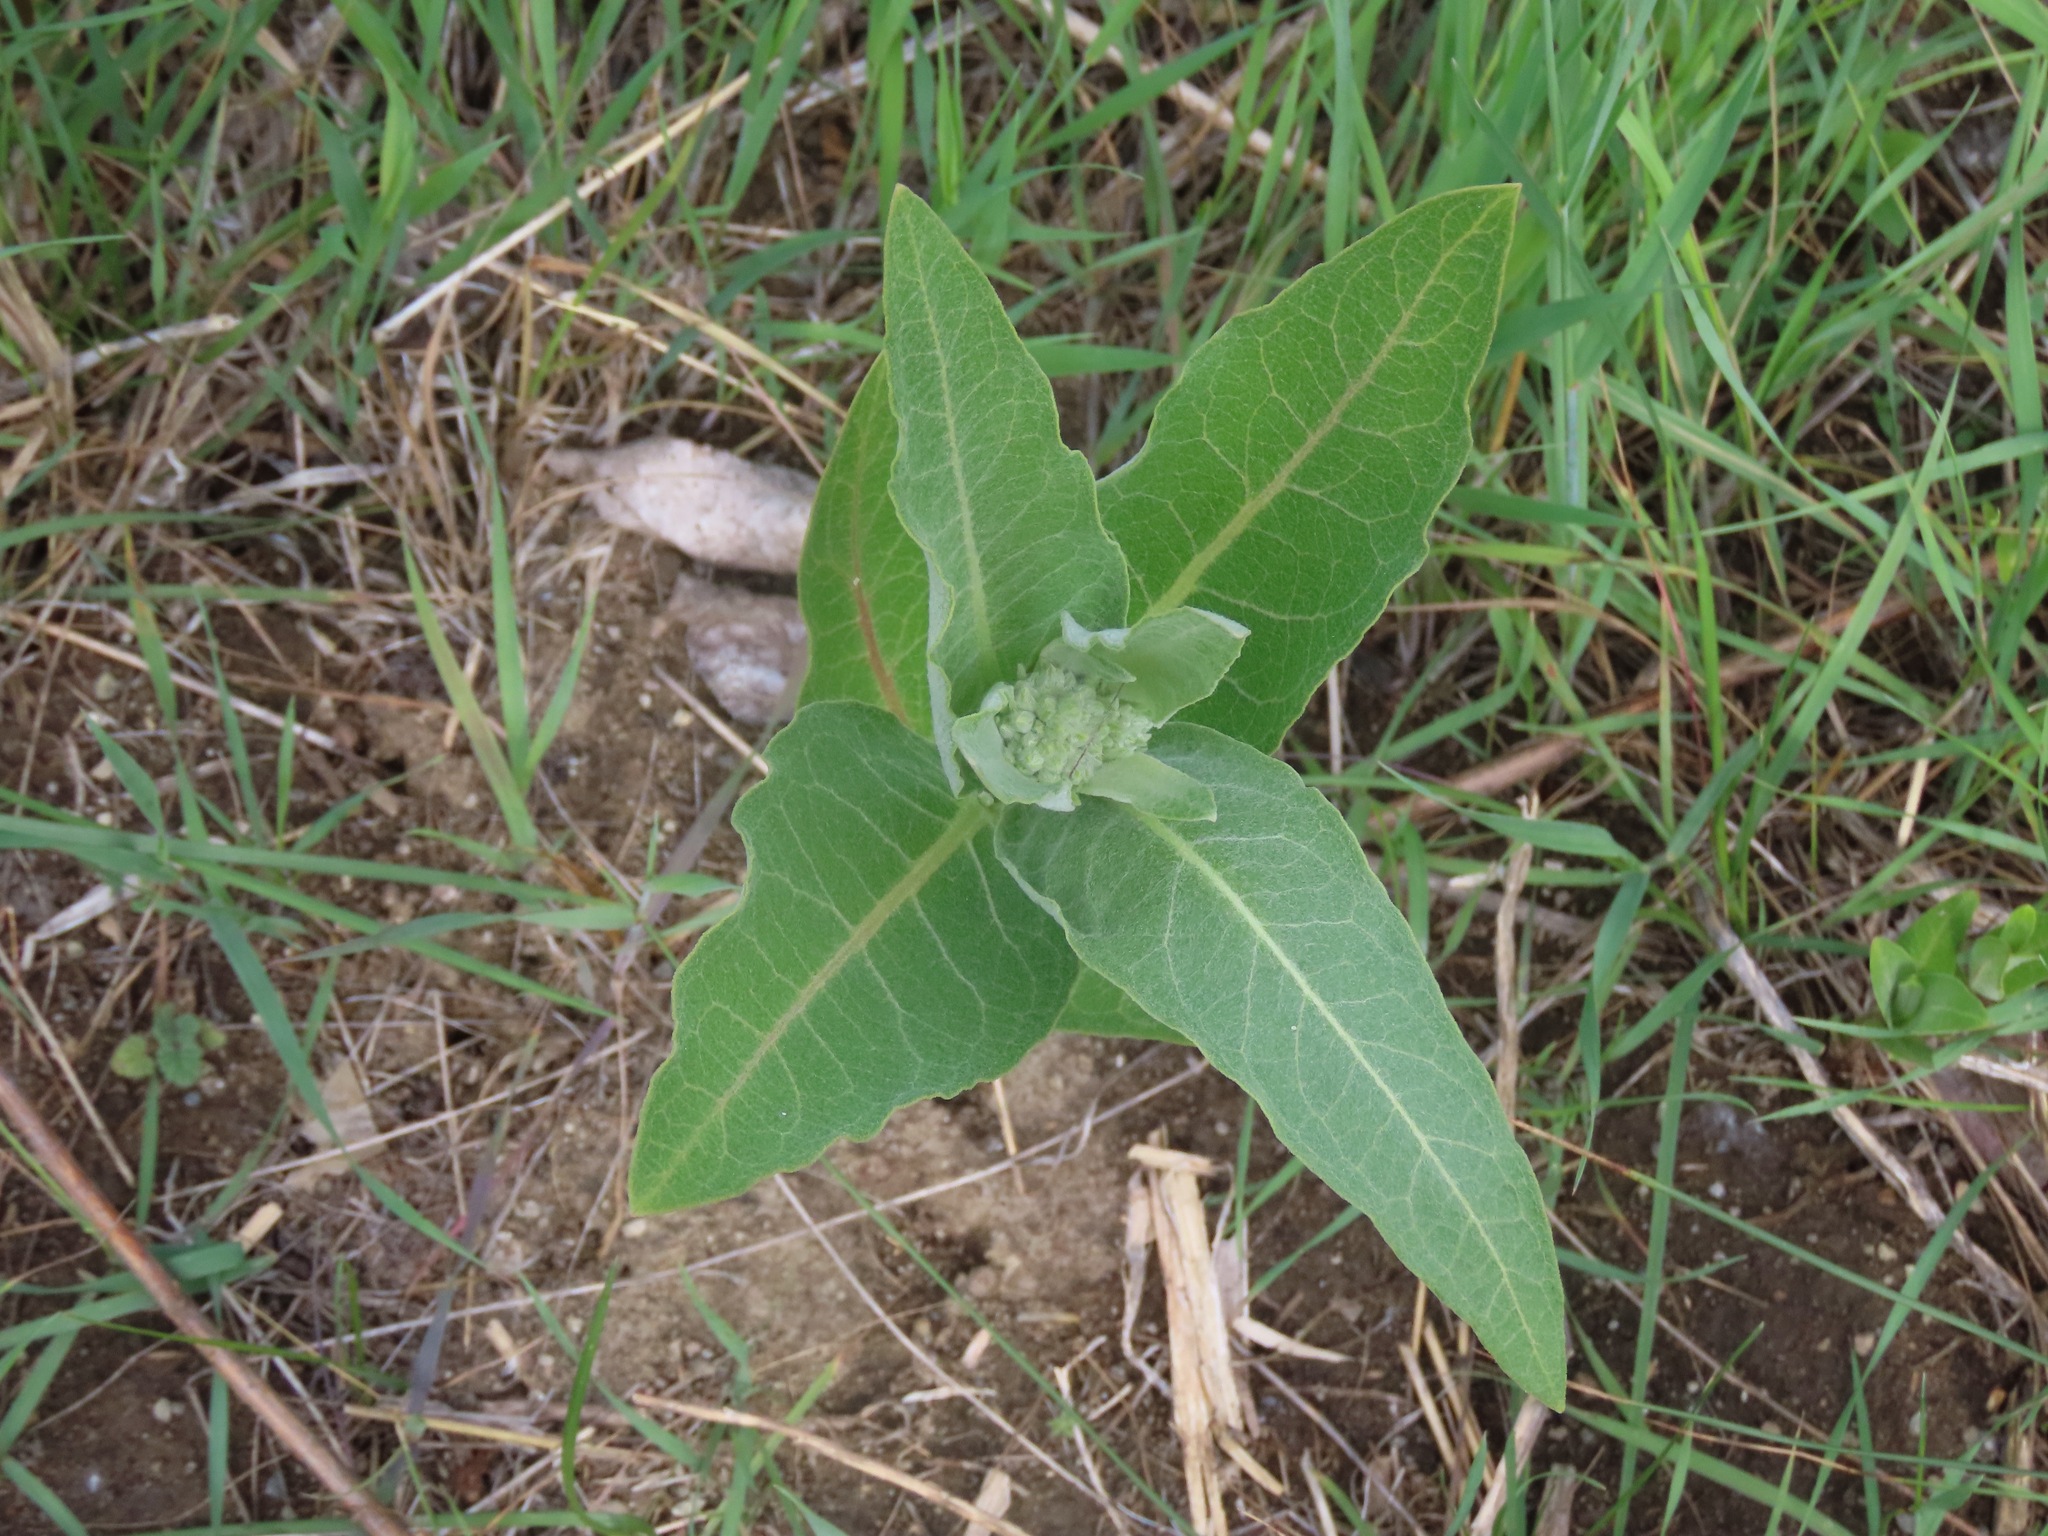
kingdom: Plantae
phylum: Tracheophyta
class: Magnoliopsida
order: Gentianales
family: Apocynaceae
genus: Asclepias
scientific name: Asclepias speciosa
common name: Showy milkweed
